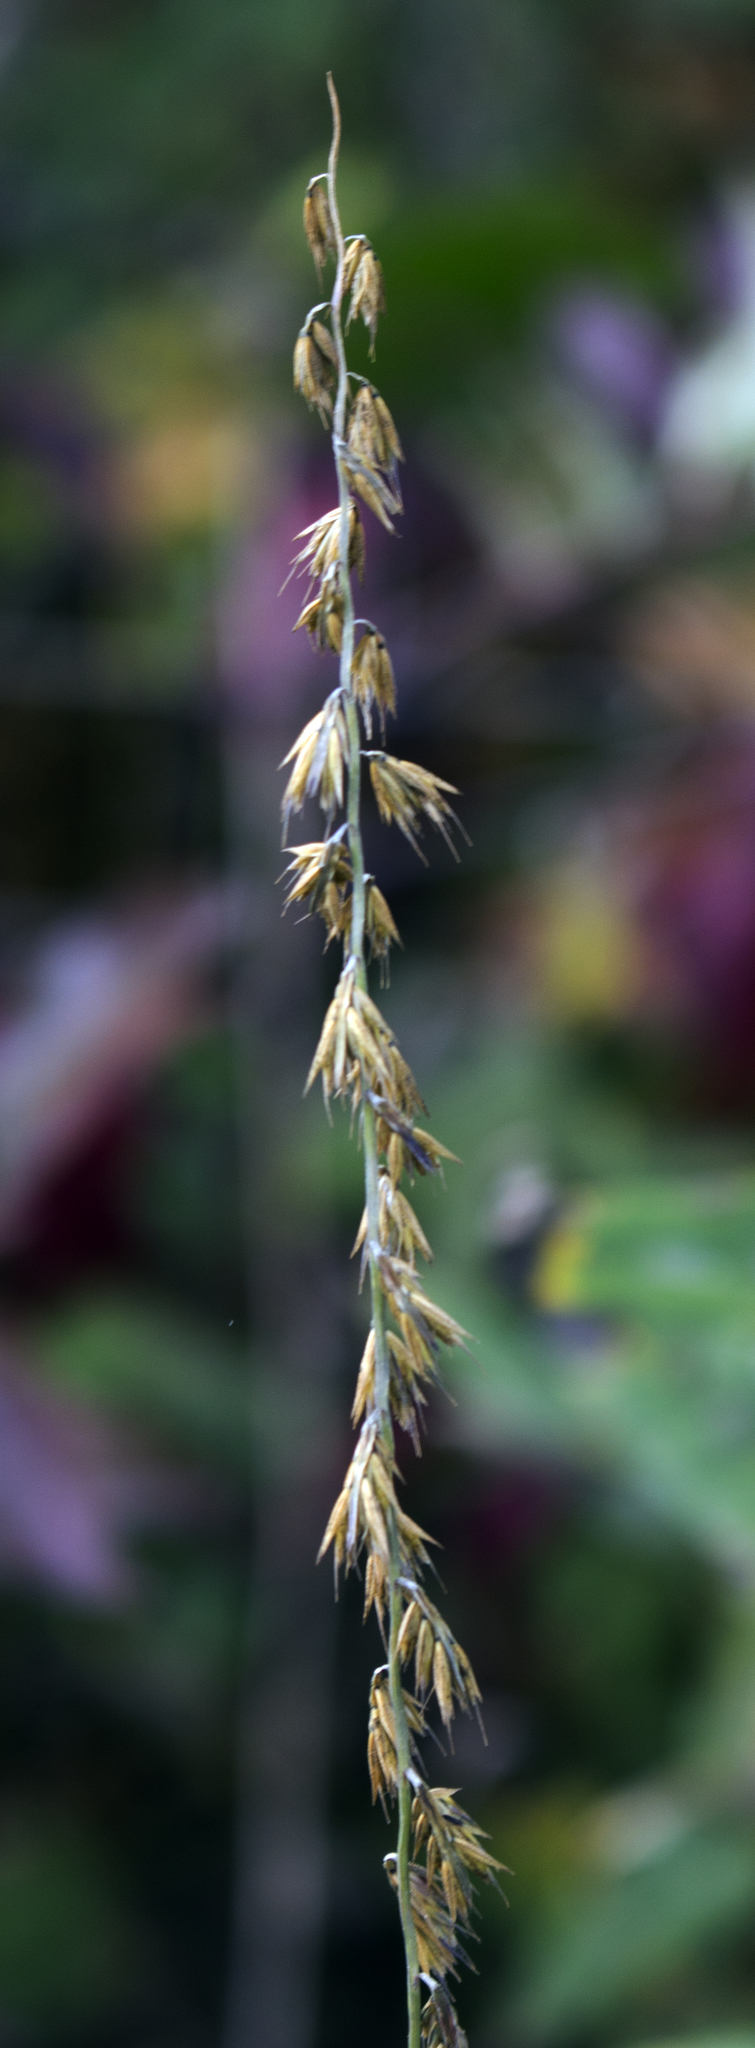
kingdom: Plantae
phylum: Tracheophyta
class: Liliopsida
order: Poales
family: Poaceae
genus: Bouteloua
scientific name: Bouteloua curtipendula
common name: Side-oats grama
